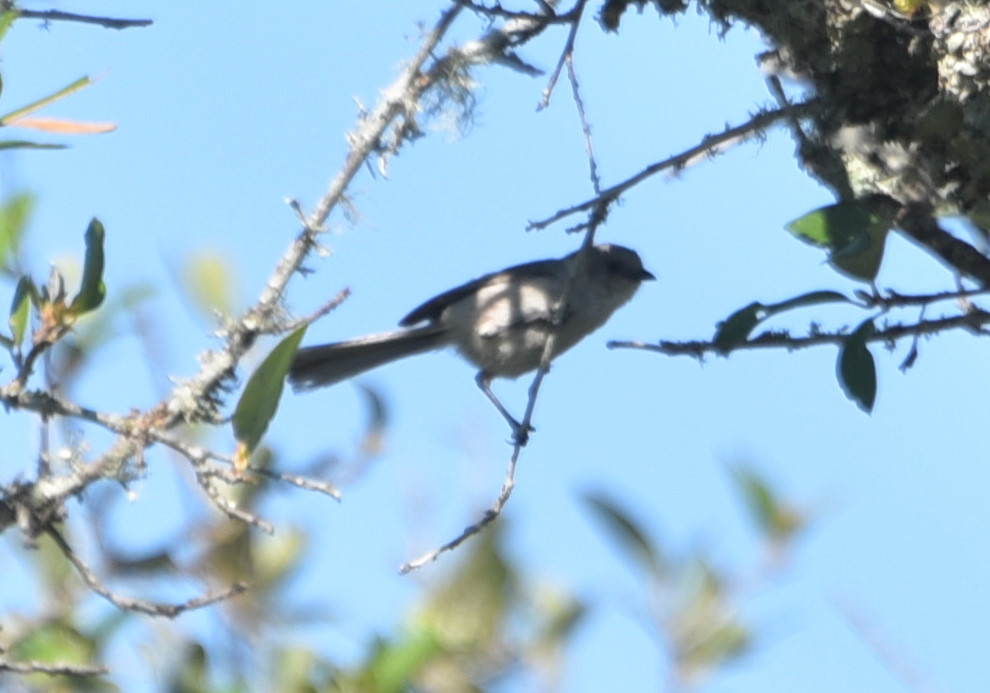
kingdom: Animalia
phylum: Chordata
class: Aves
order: Passeriformes
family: Polioptilidae
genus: Polioptila
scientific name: Polioptila caerulea
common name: Blue-gray gnatcatcher
